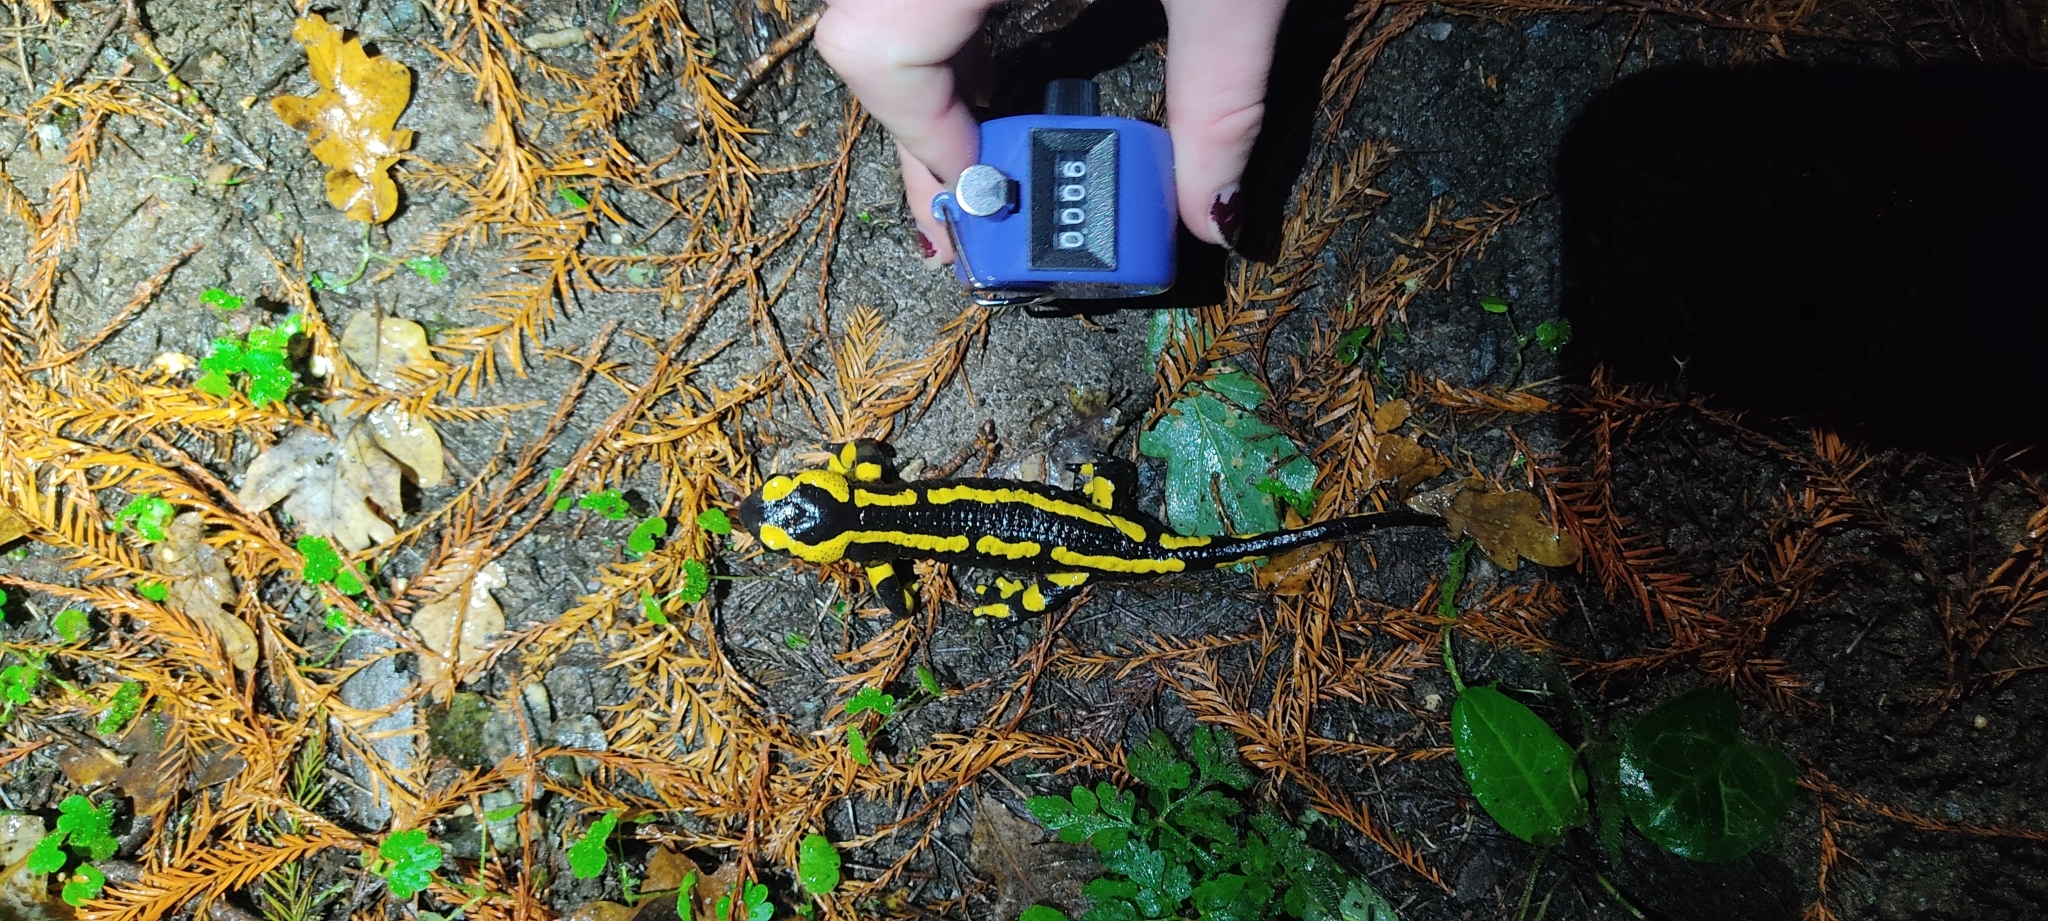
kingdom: Animalia
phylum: Chordata
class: Amphibia
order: Caudata
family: Salamandridae
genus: Salamandra
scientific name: Salamandra salamandra
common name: Fire salamander
